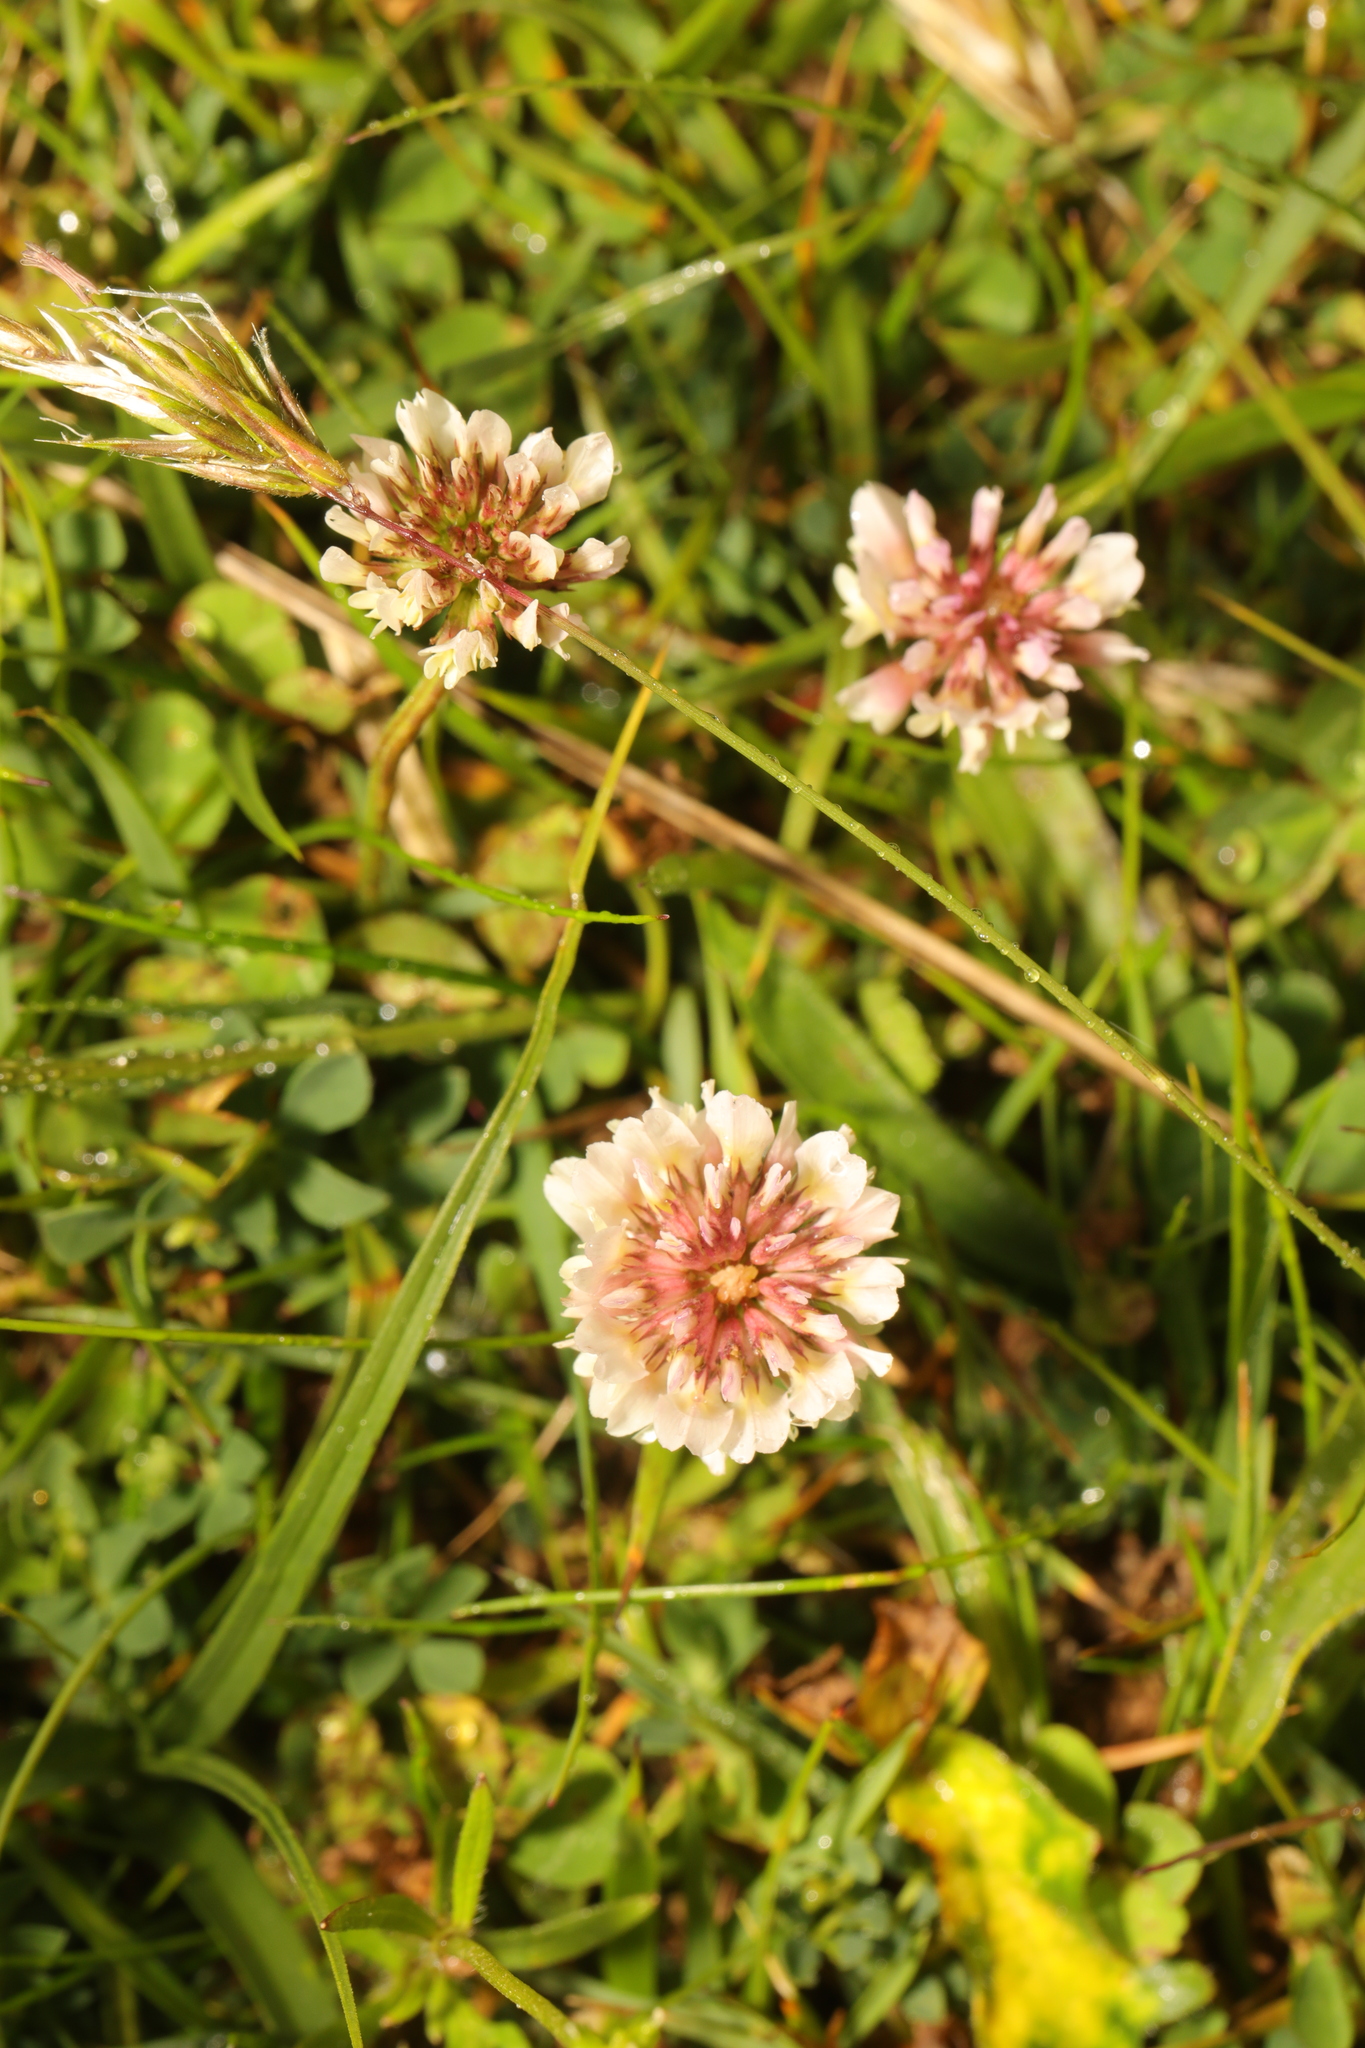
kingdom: Plantae
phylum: Tracheophyta
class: Magnoliopsida
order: Fabales
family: Fabaceae
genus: Trifolium
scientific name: Trifolium repens
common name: White clover
